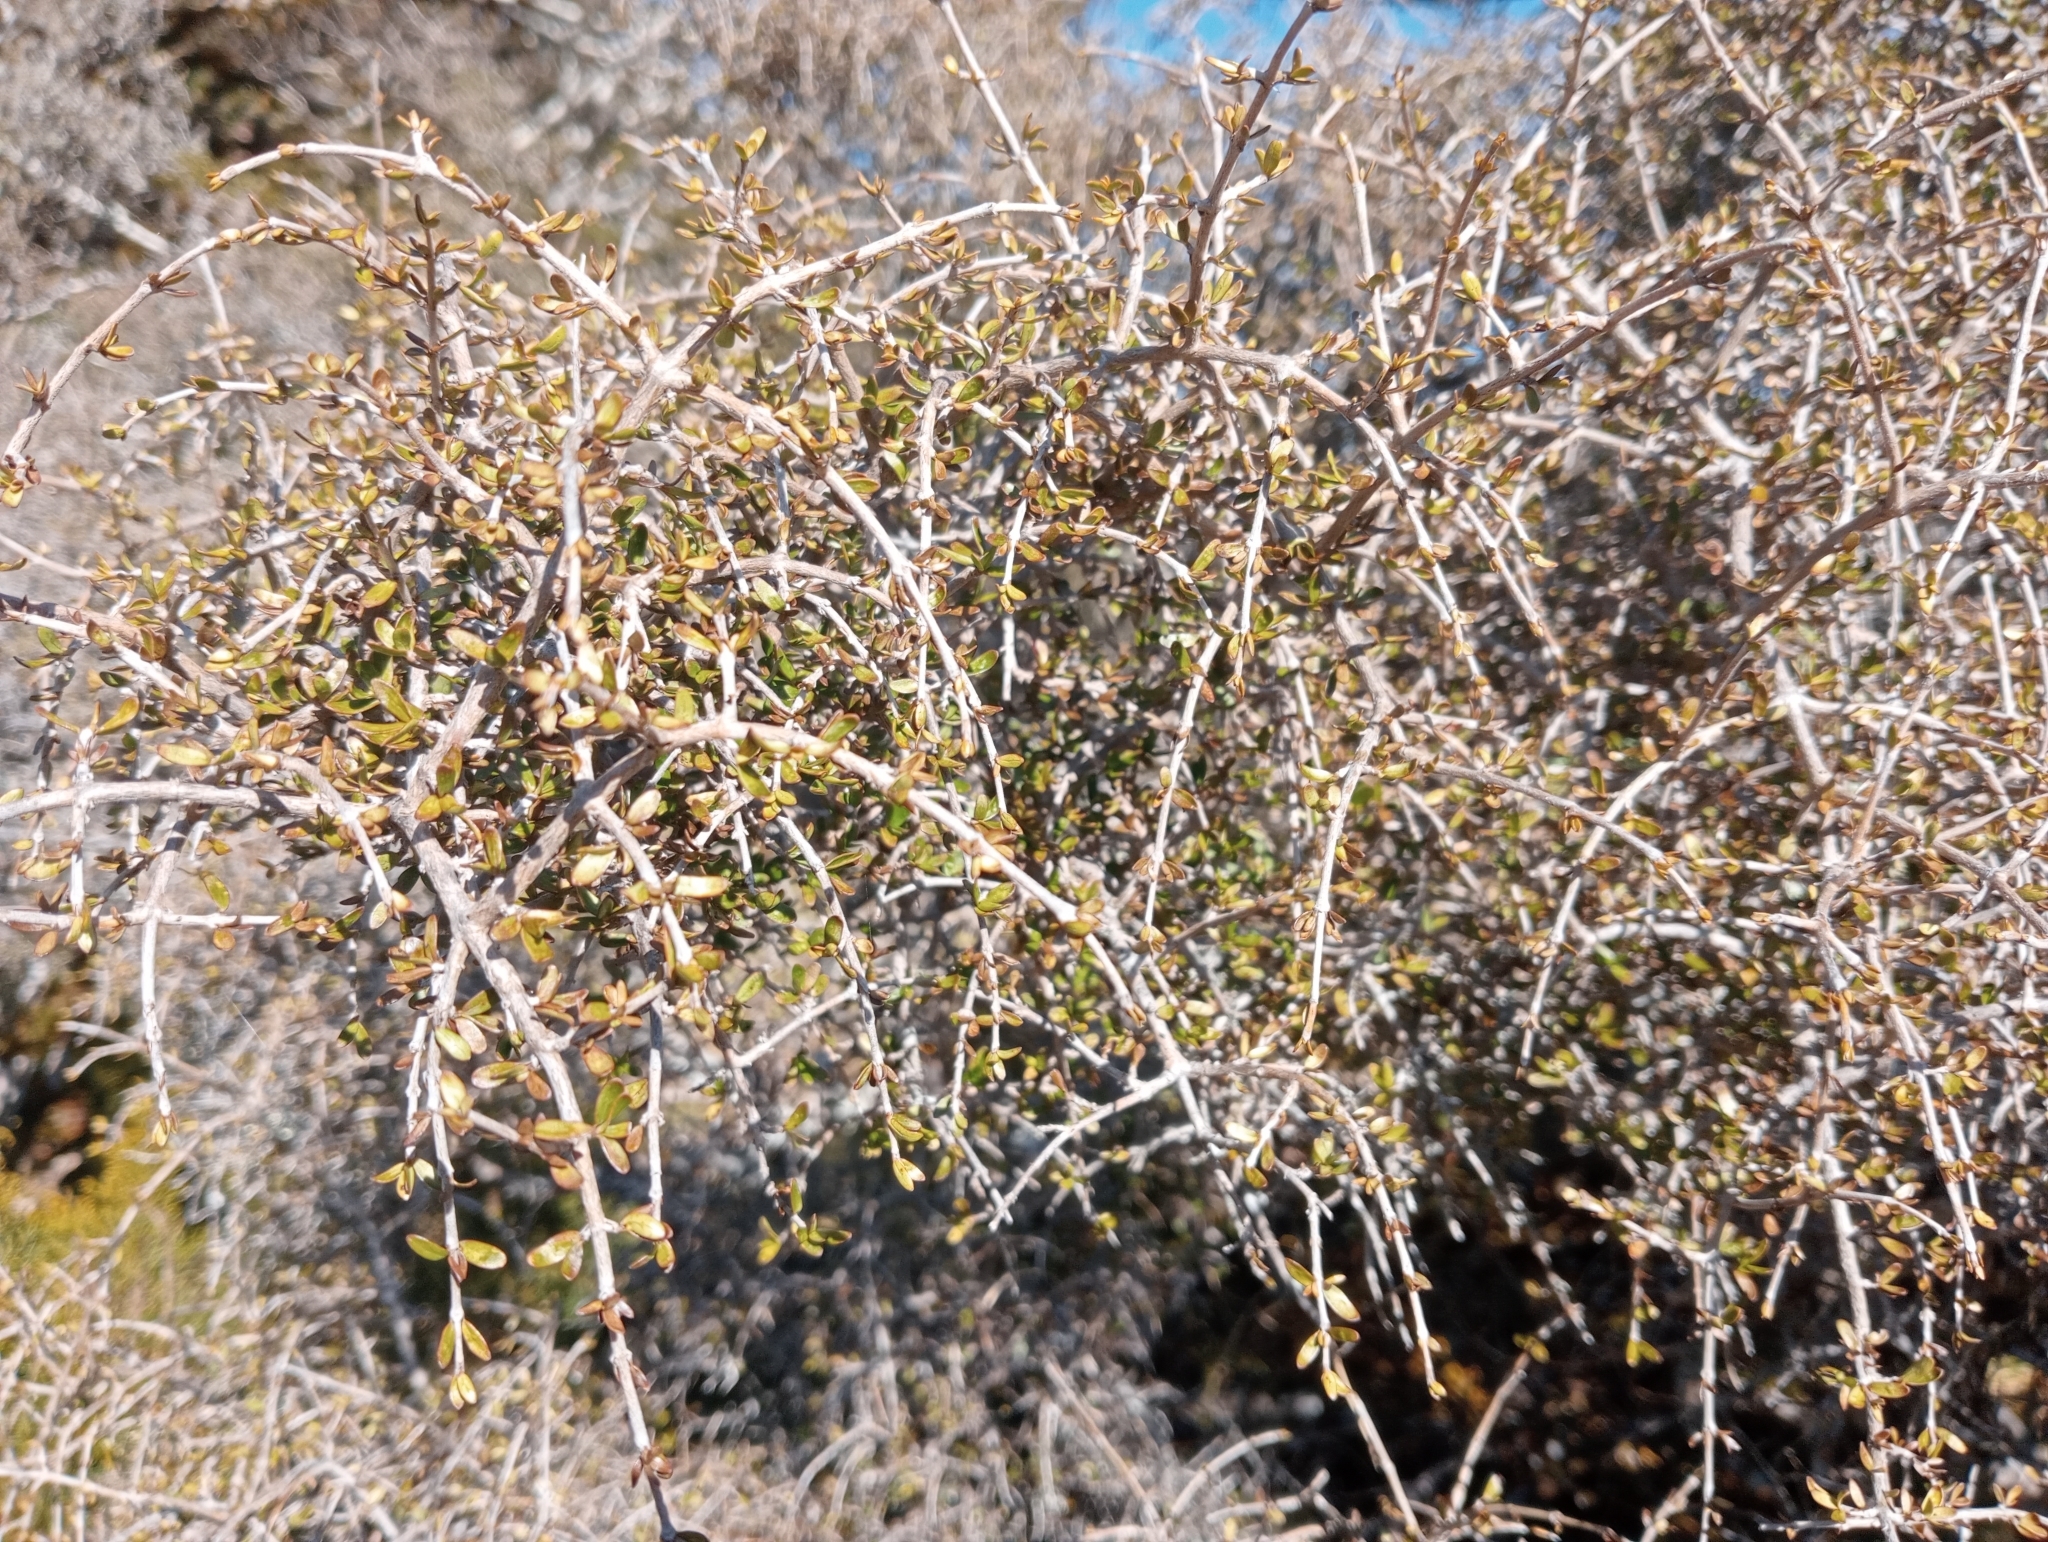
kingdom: Plantae
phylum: Tracheophyta
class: Magnoliopsida
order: Gentianales
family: Rubiaceae
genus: Coprosma
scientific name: Coprosma decurva
